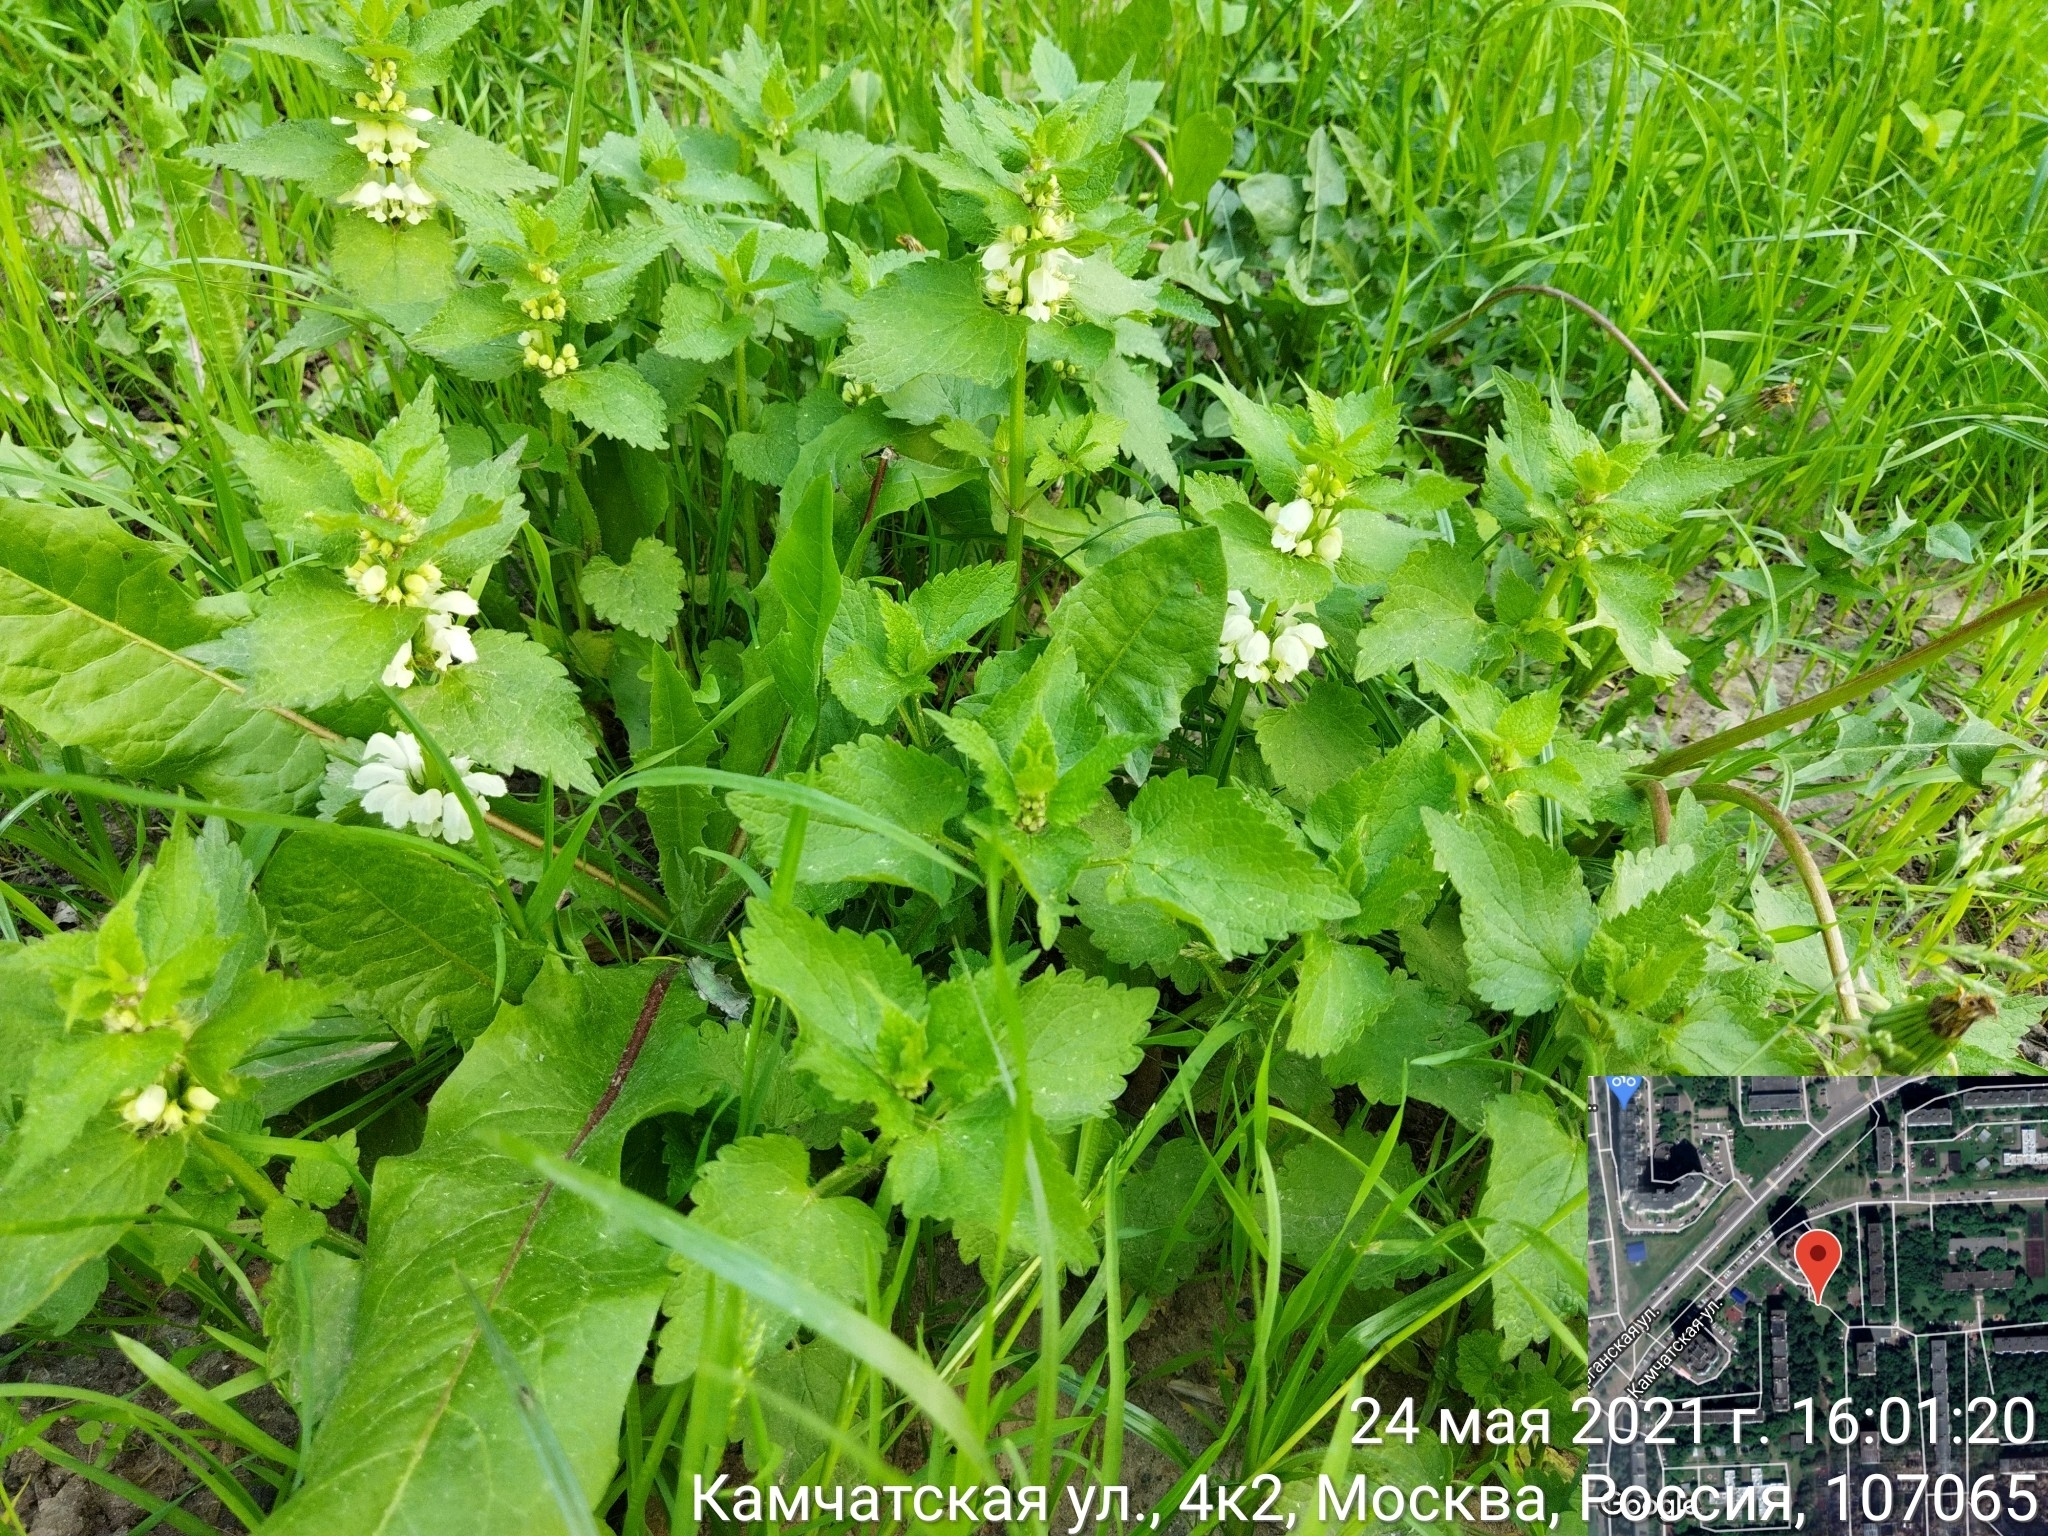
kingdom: Plantae
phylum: Tracheophyta
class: Magnoliopsida
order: Lamiales
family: Lamiaceae
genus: Lamium
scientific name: Lamium album
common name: White dead-nettle
